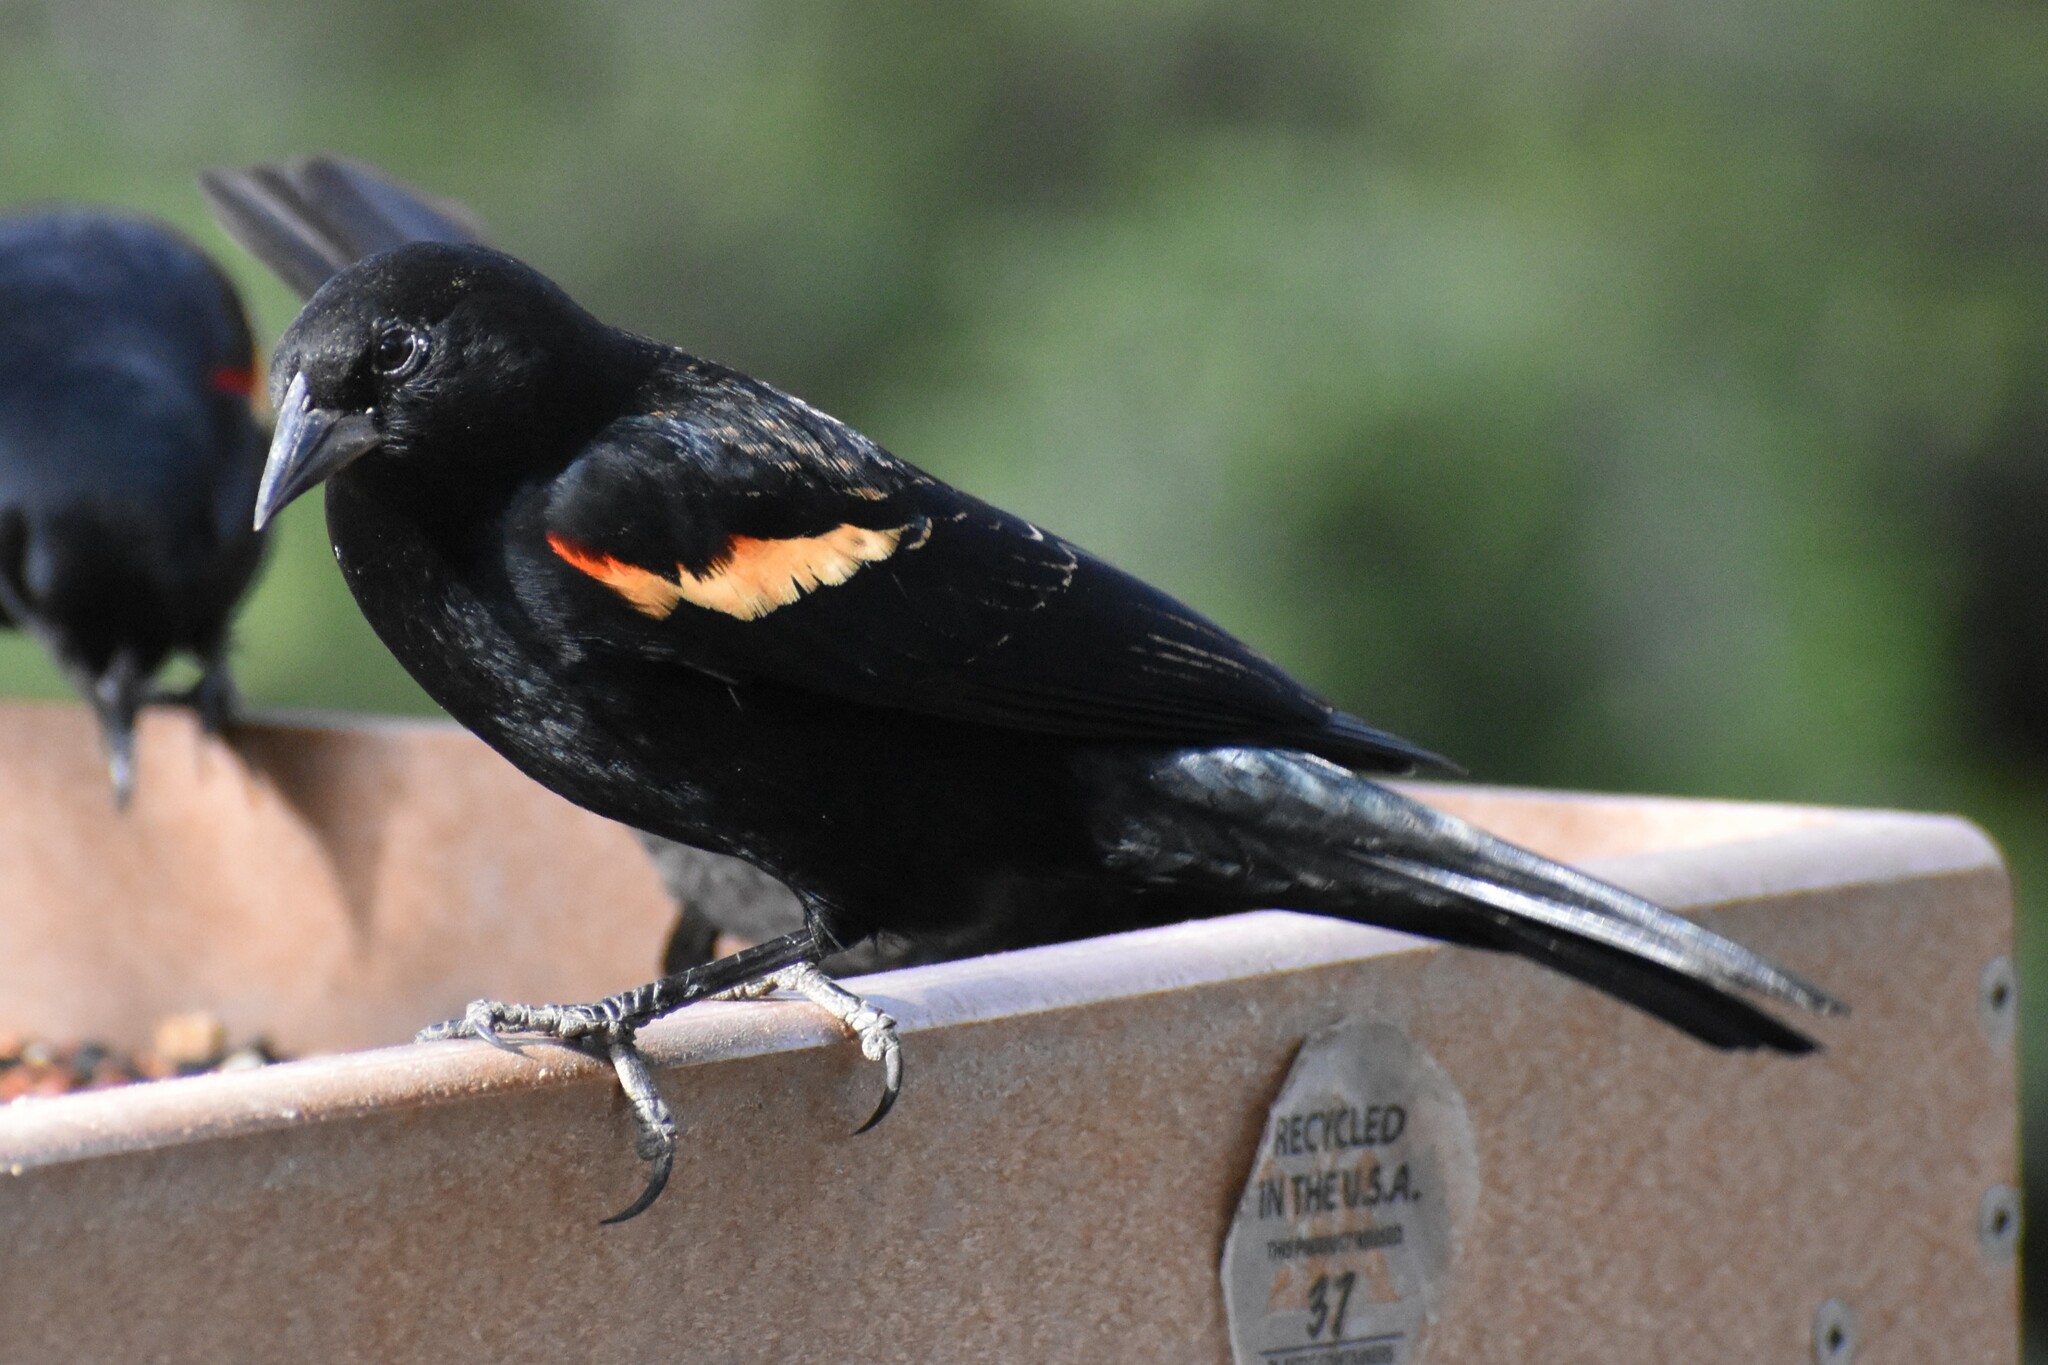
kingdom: Animalia
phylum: Chordata
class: Aves
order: Passeriformes
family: Icteridae
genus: Agelaius
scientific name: Agelaius phoeniceus
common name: Red-winged blackbird
